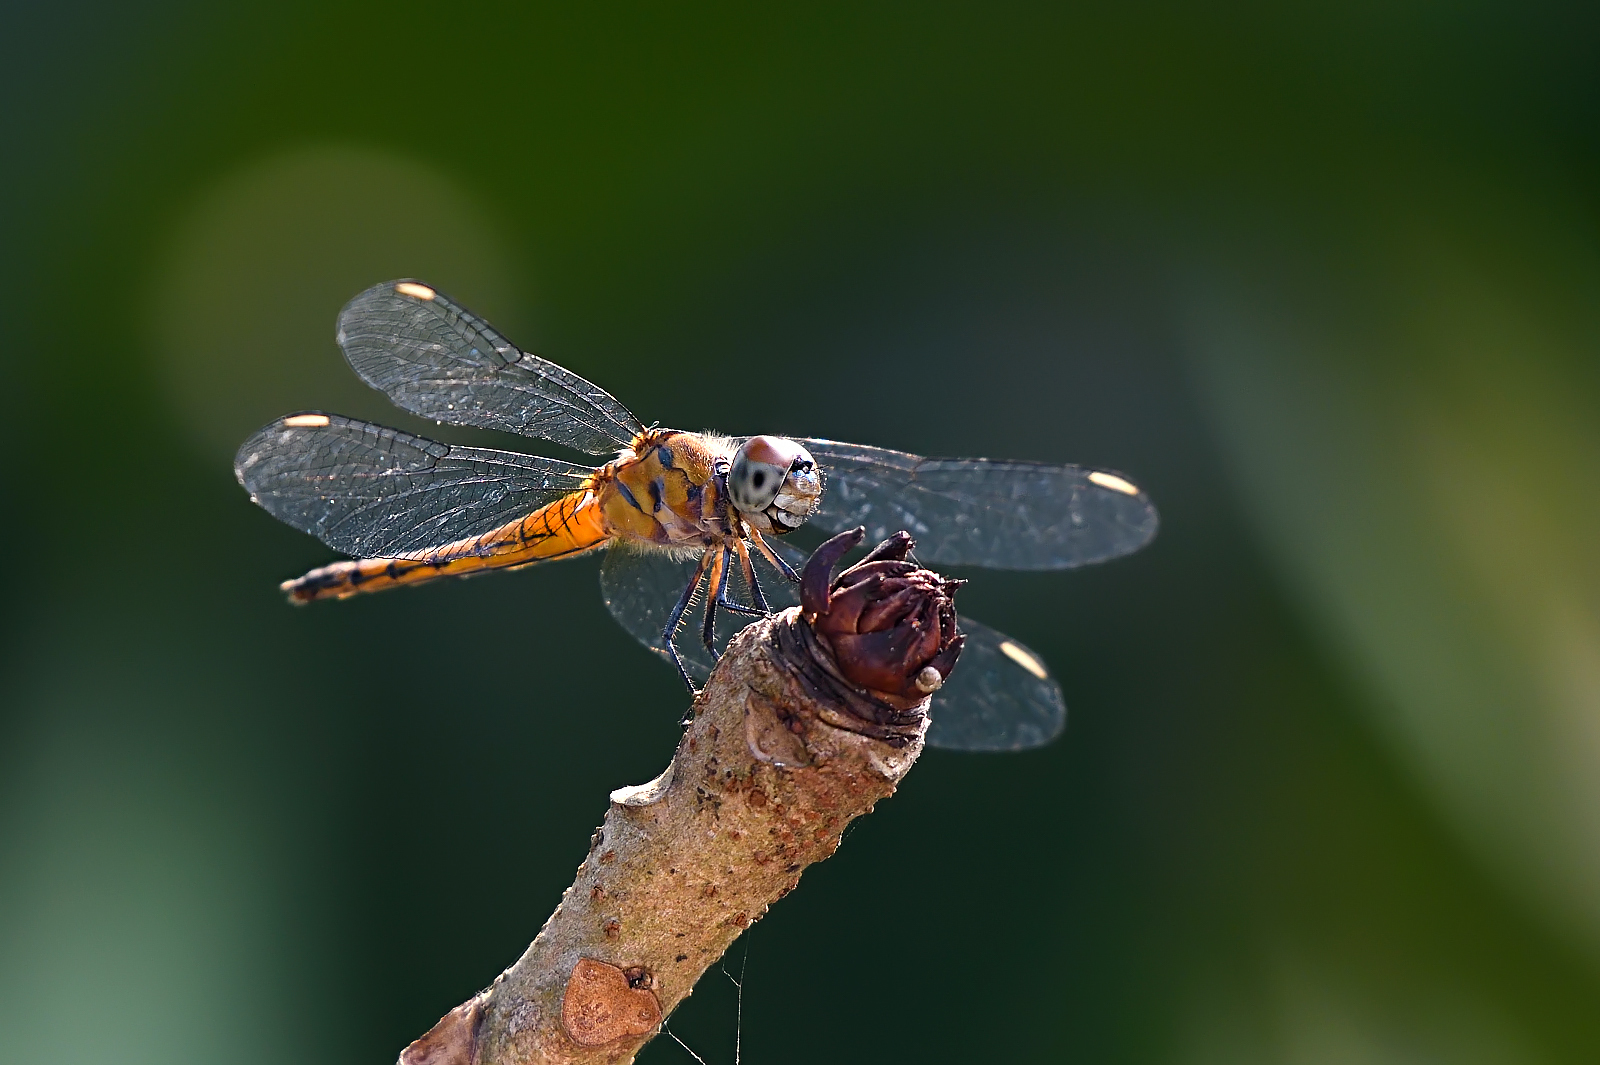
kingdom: Animalia
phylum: Arthropoda
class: Insecta
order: Odonata
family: Libellulidae
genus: Brachydiplax
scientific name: Brachydiplax chalybea
